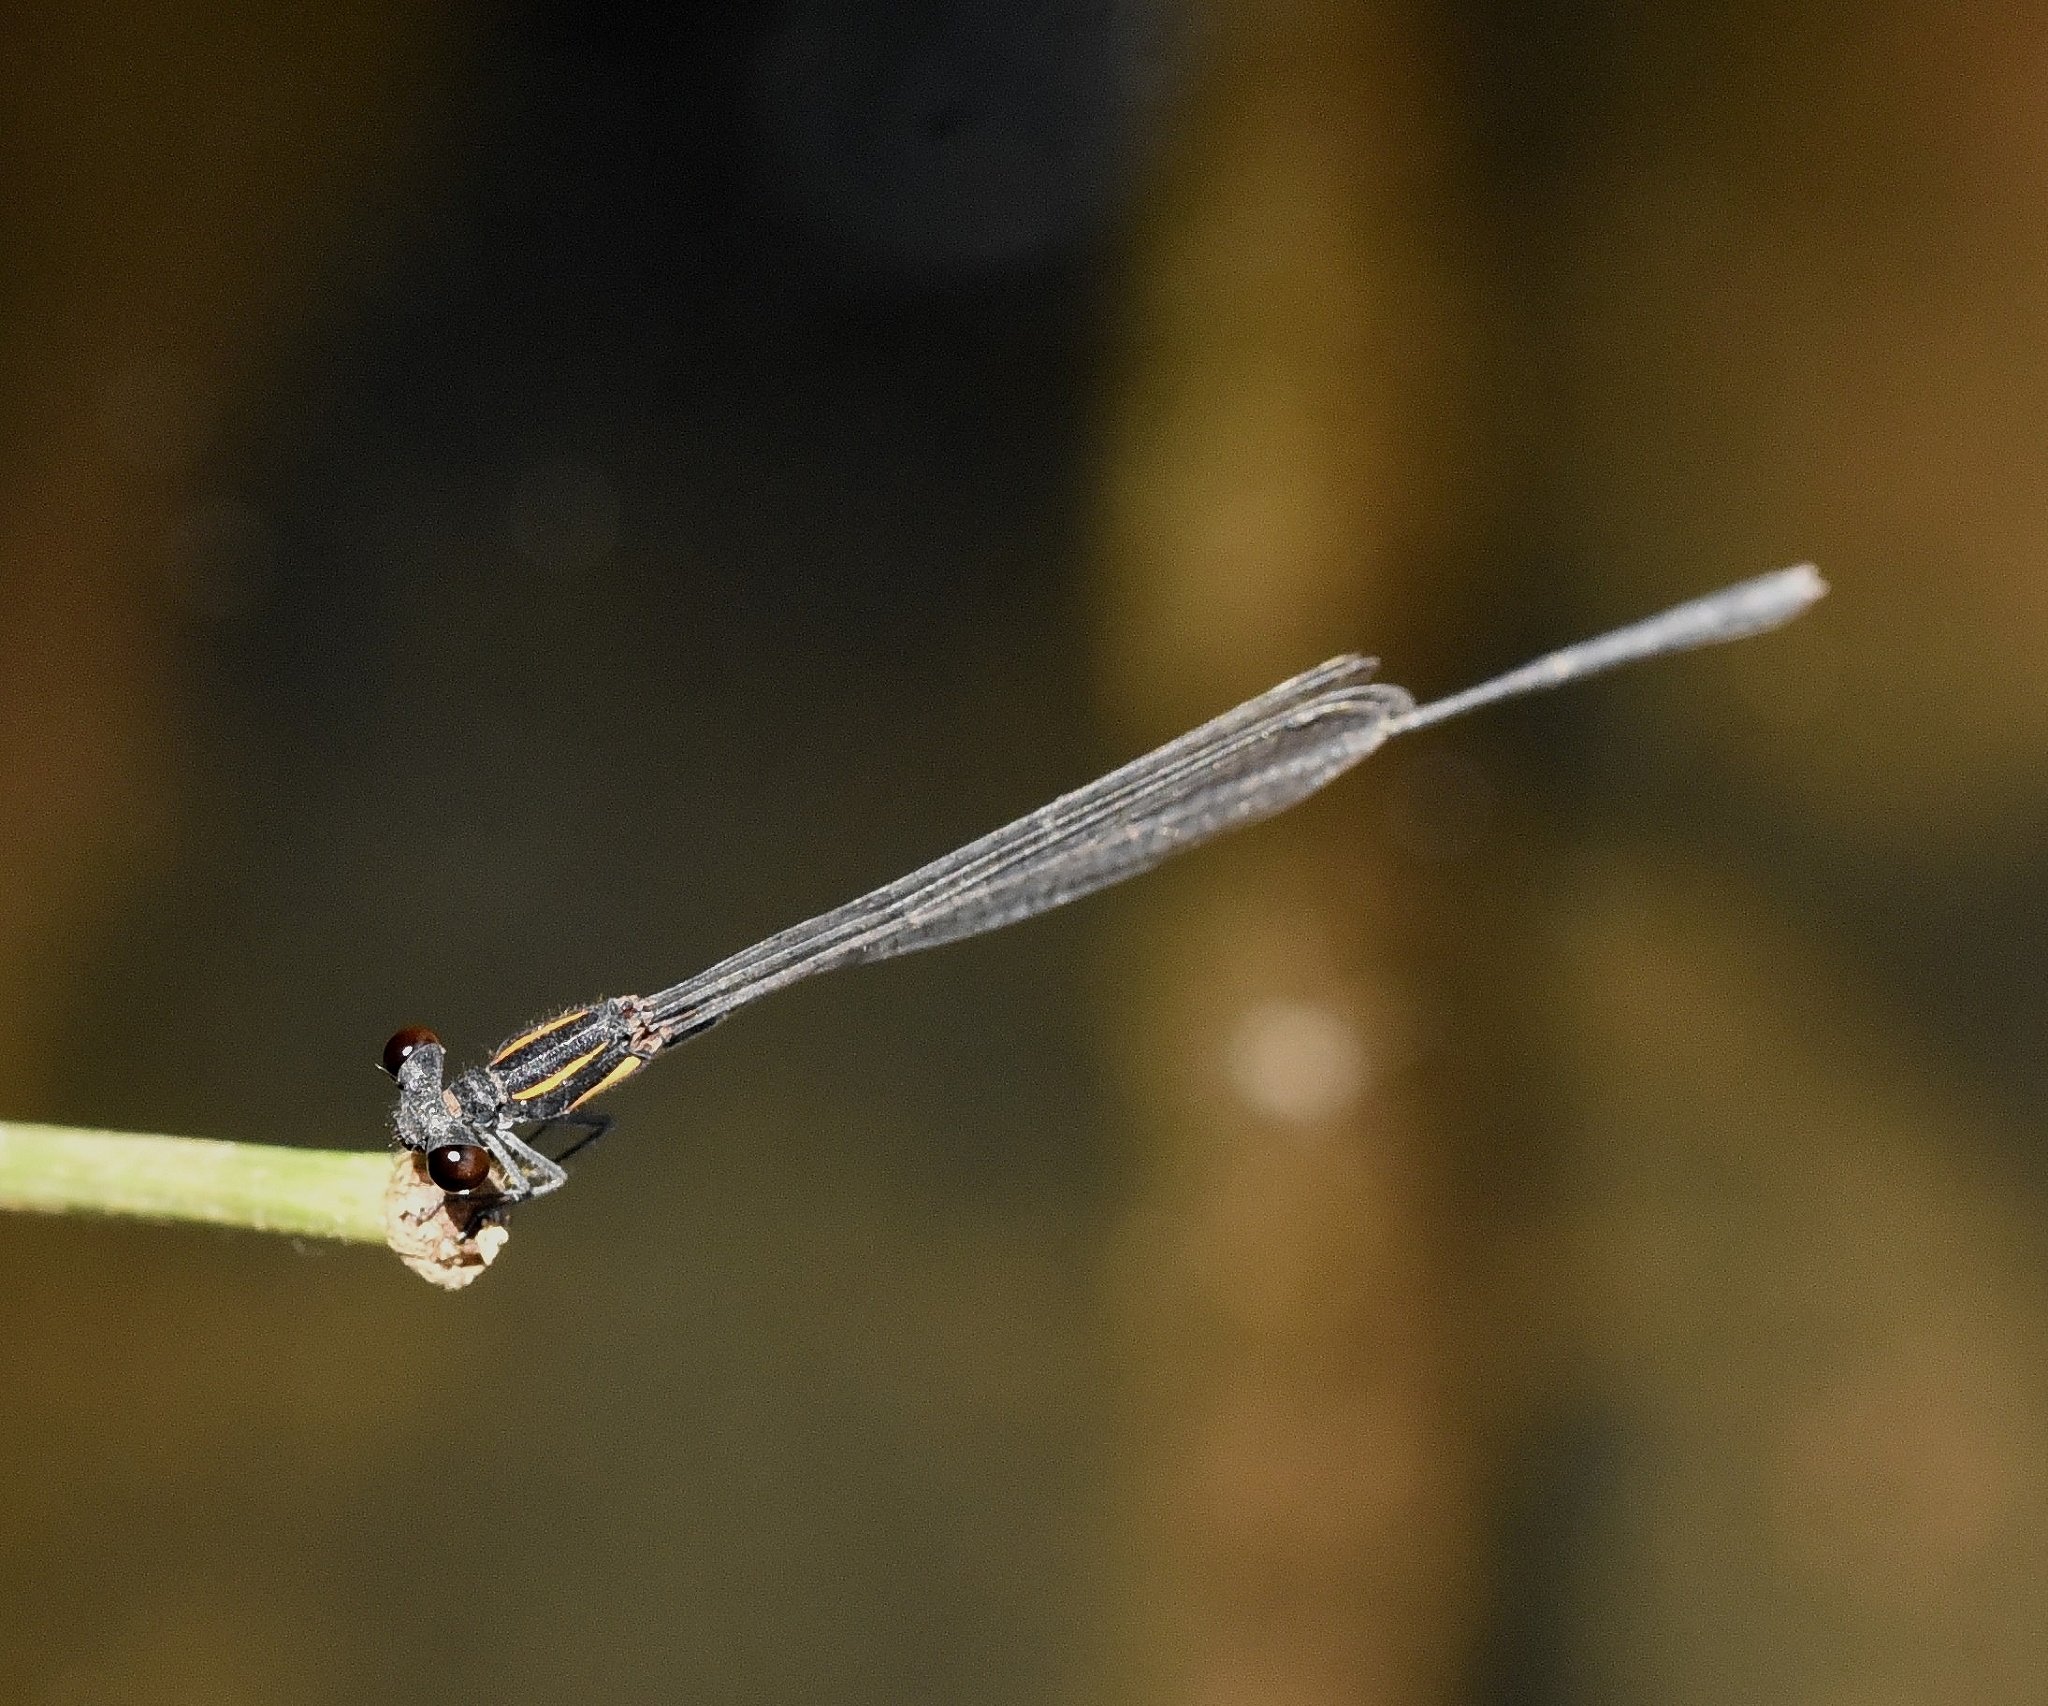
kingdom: Animalia
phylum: Arthropoda
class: Insecta
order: Odonata
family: Platycnemididae
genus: Prodasineura
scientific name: Prodasineura verticalis
